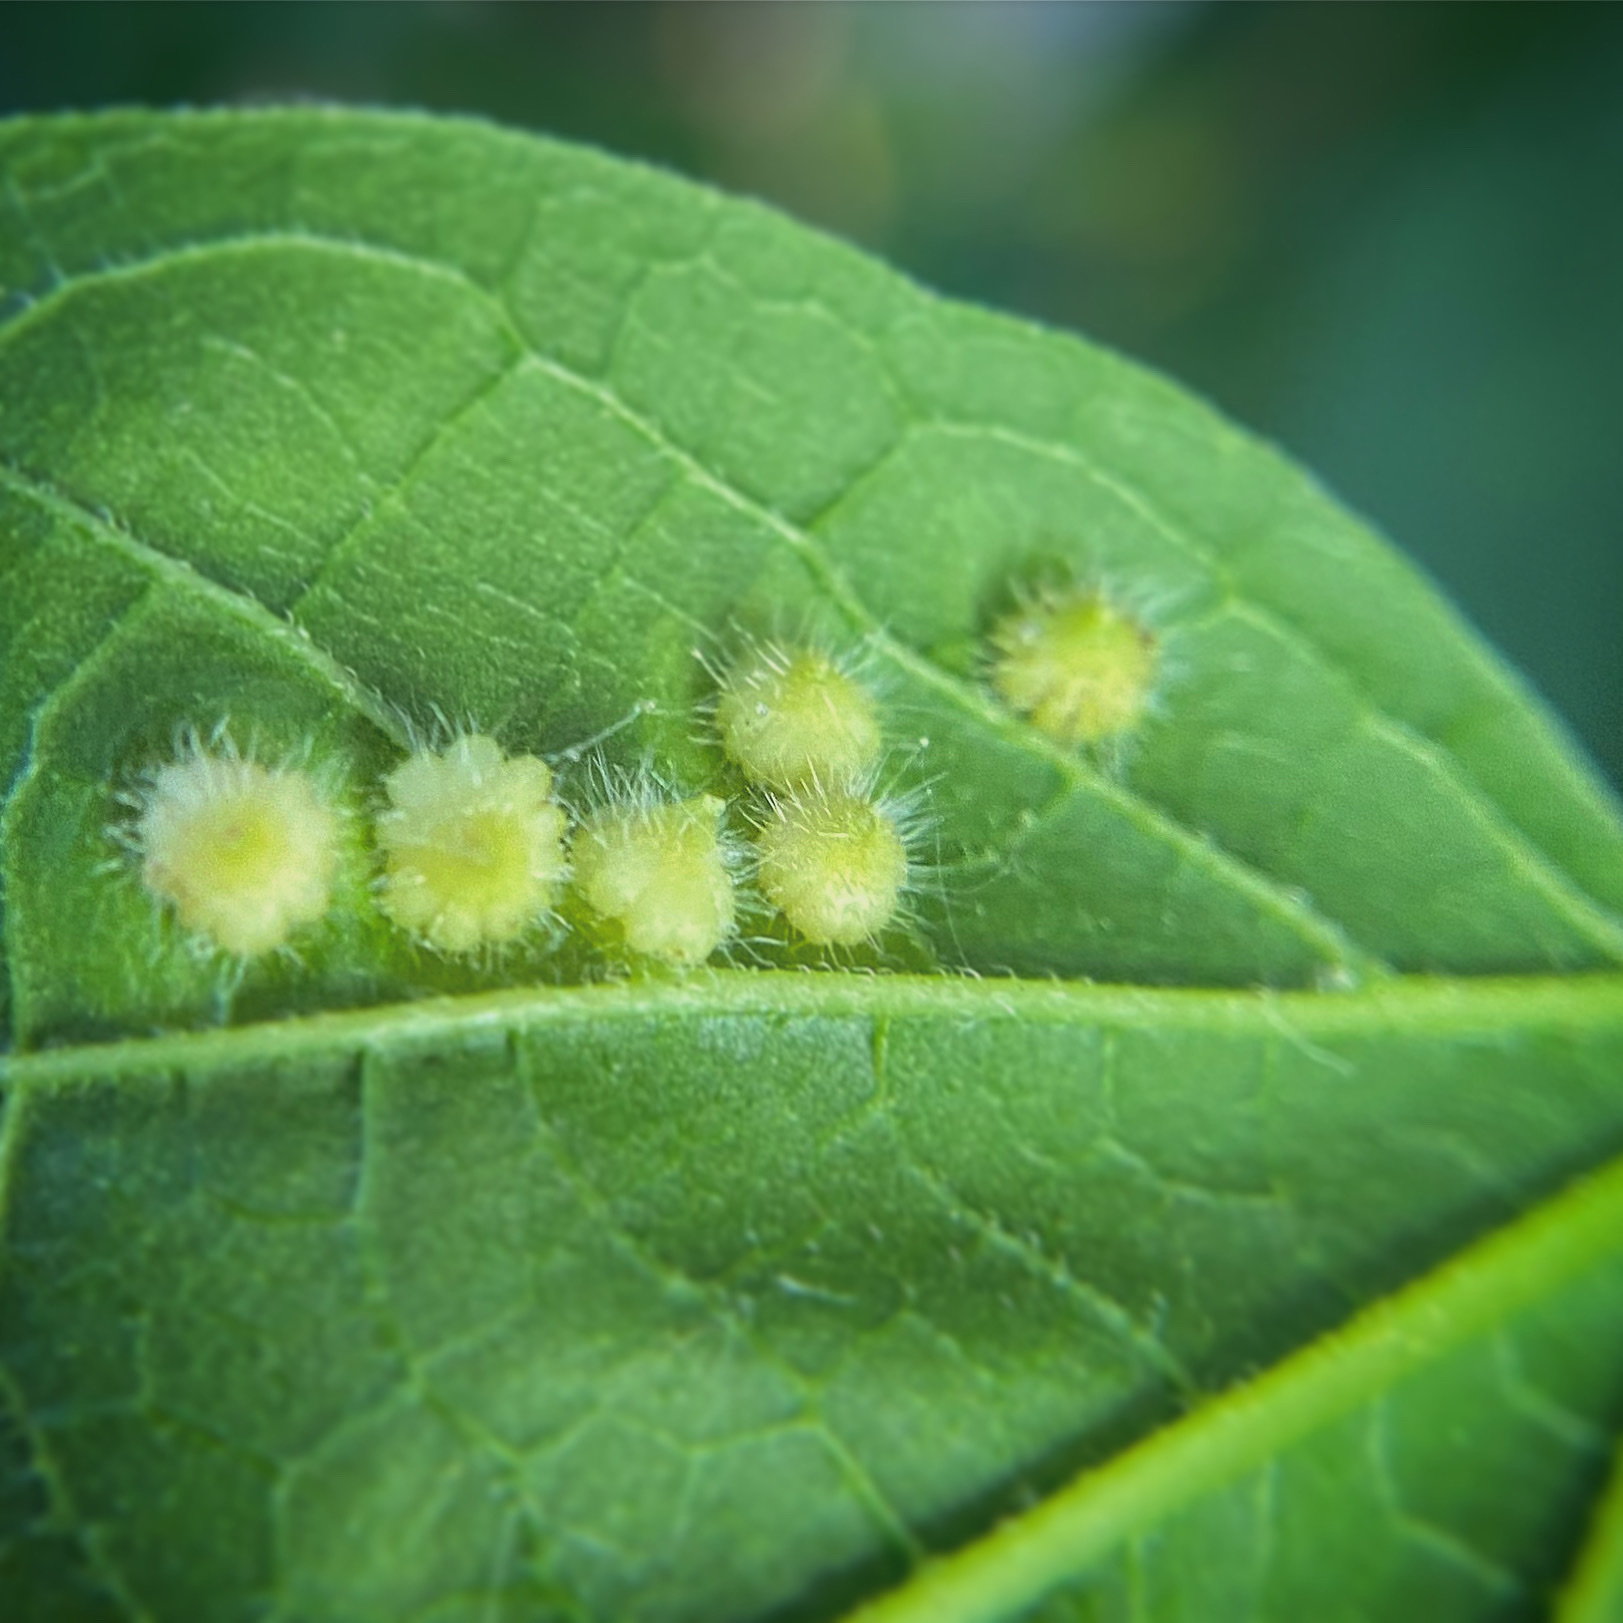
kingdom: Animalia
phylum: Arthropoda
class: Insecta
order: Diptera
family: Cecidomyiidae
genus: Celticecis
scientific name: Celticecis capsularis
